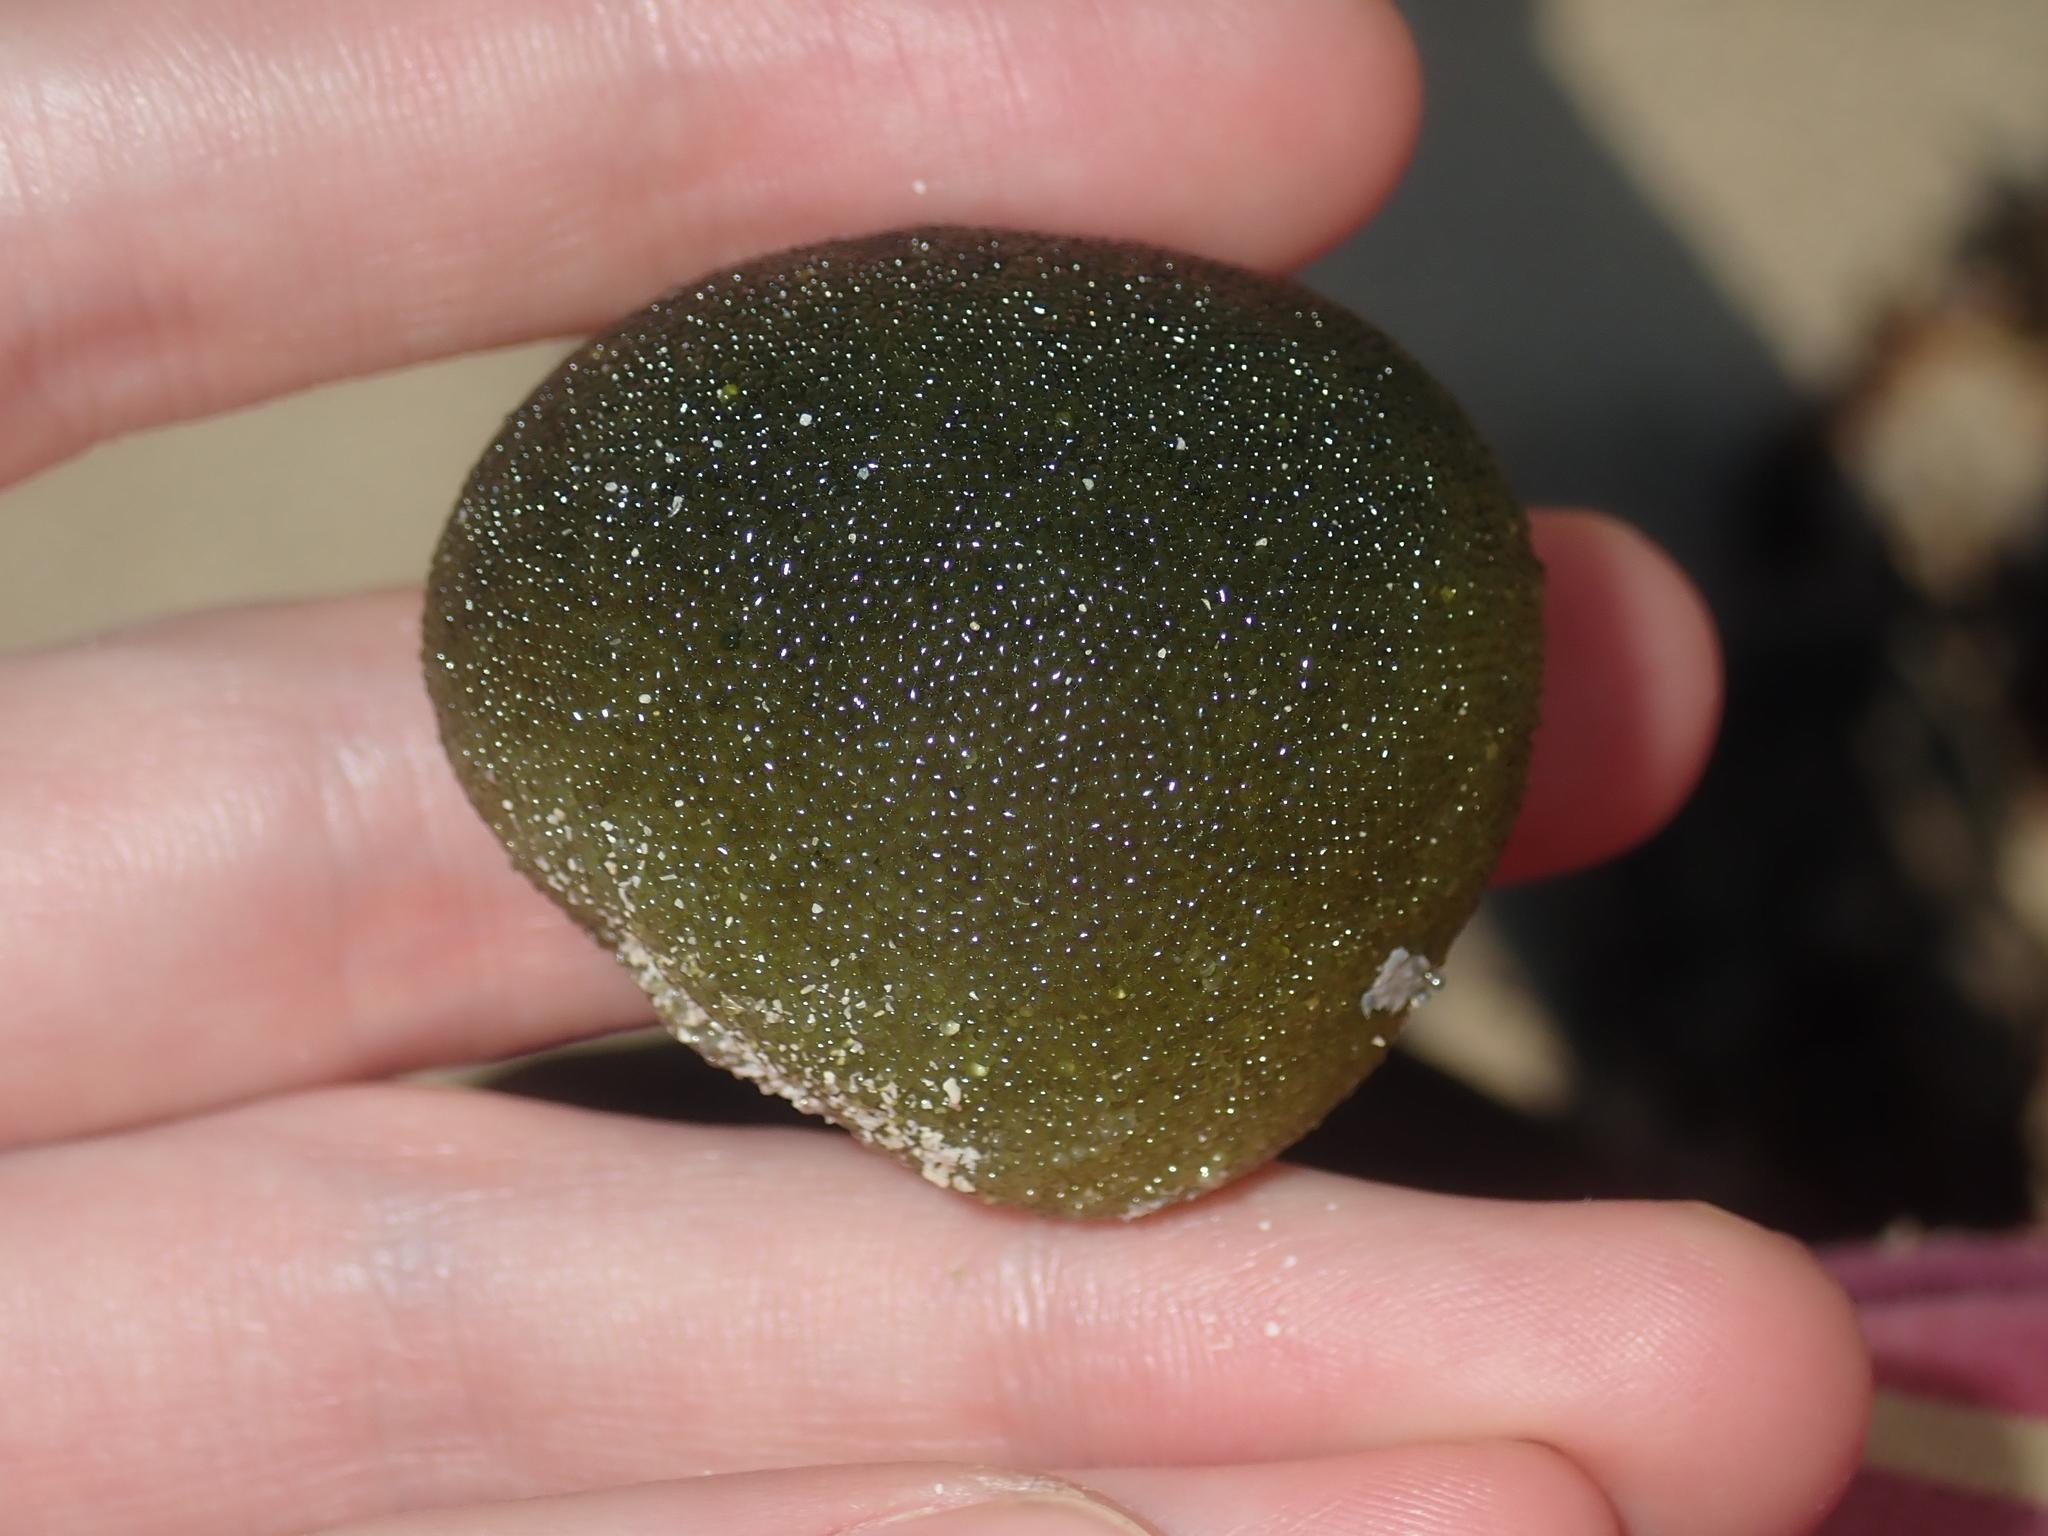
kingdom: Plantae
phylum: Chlorophyta
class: Ulvophyceae
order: Bryopsidales
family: Codiaceae
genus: Codium
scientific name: Codium mamillosum
